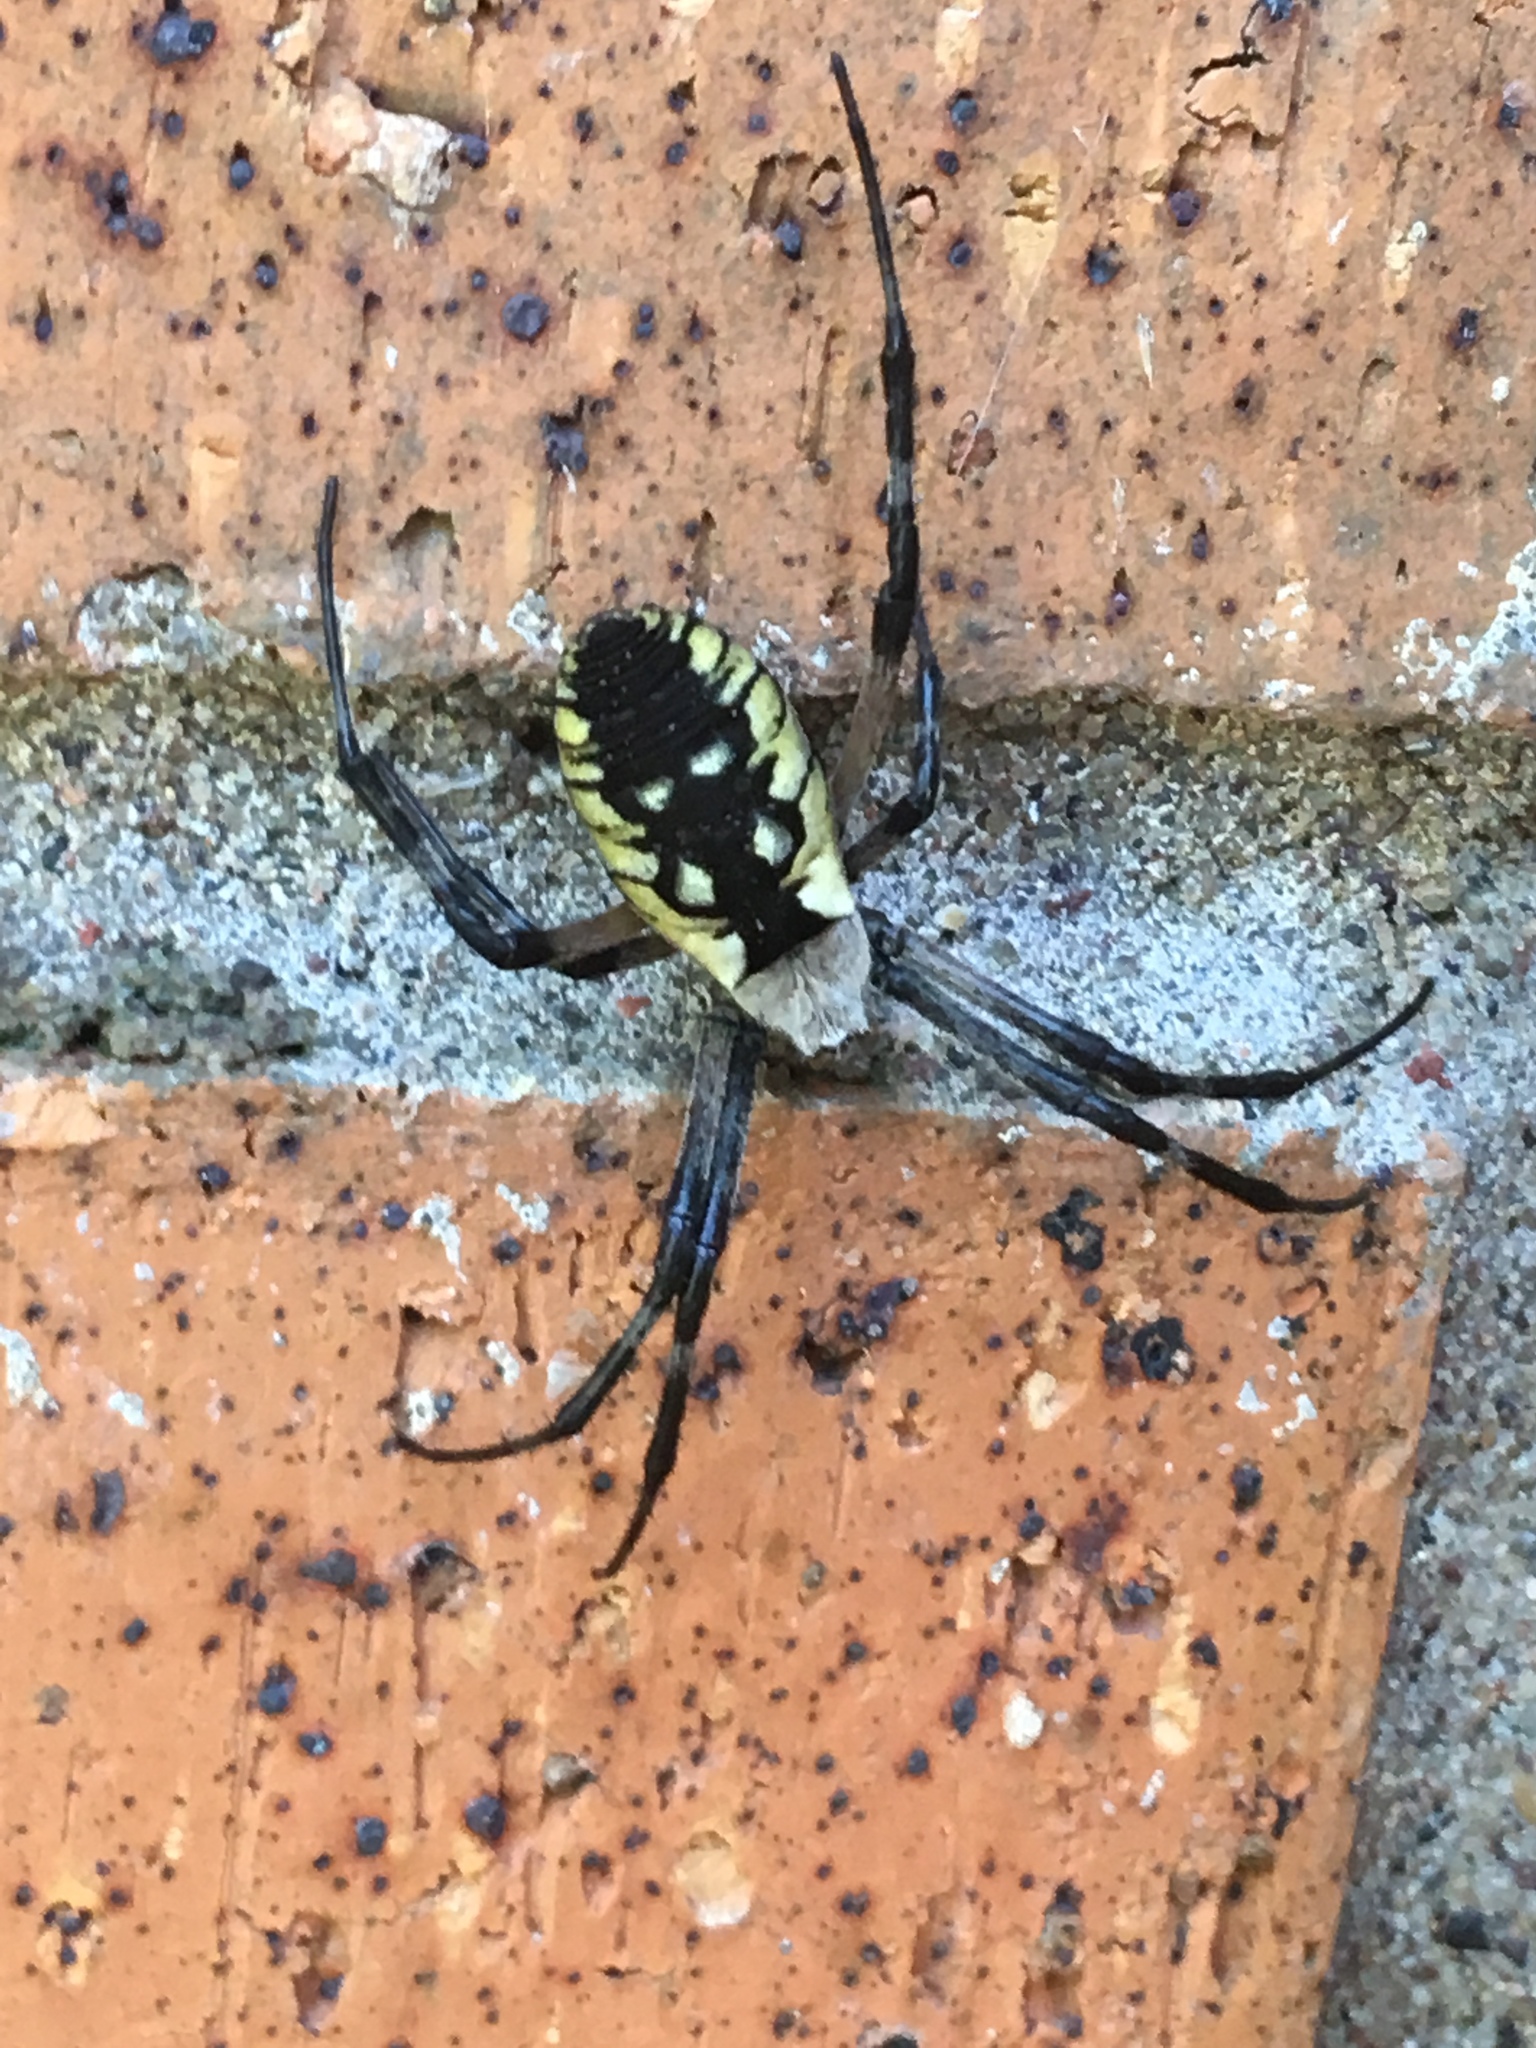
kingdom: Animalia
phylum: Arthropoda
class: Arachnida
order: Araneae
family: Araneidae
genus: Argiope
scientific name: Argiope aurantia
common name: Orb weavers
